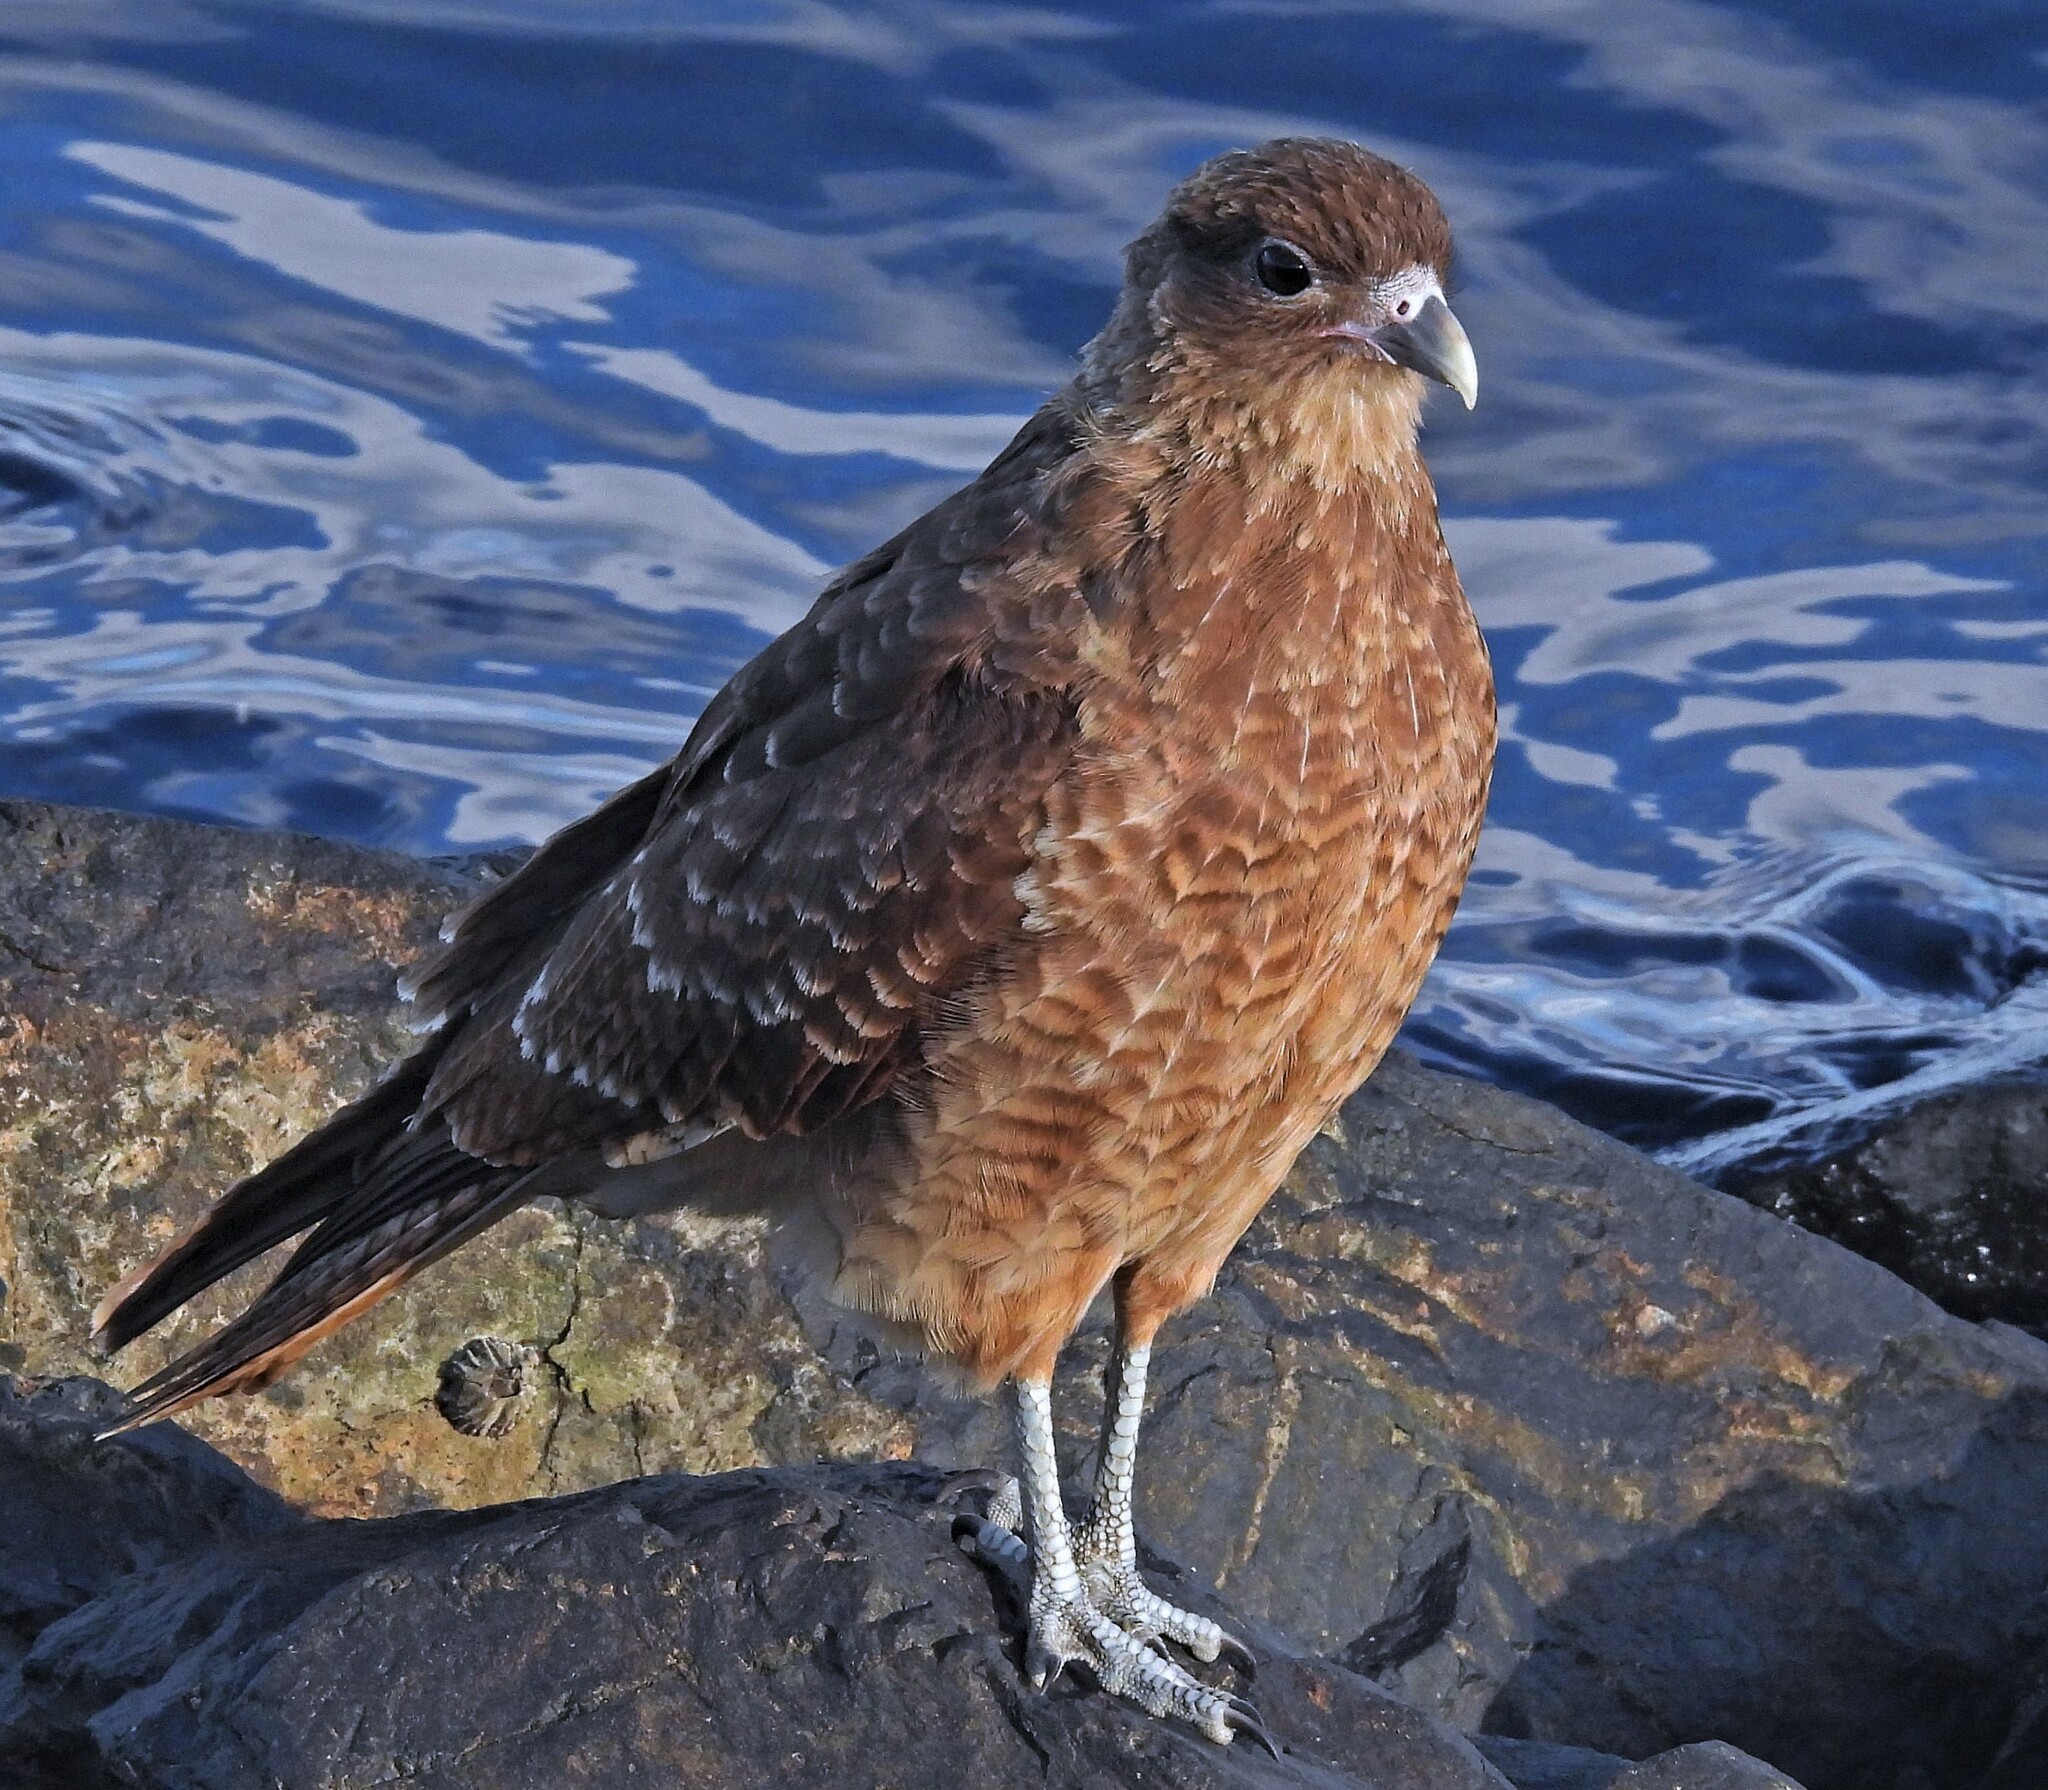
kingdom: Animalia
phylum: Chordata
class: Aves
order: Falconiformes
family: Falconidae
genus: Daptrius
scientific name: Daptrius
